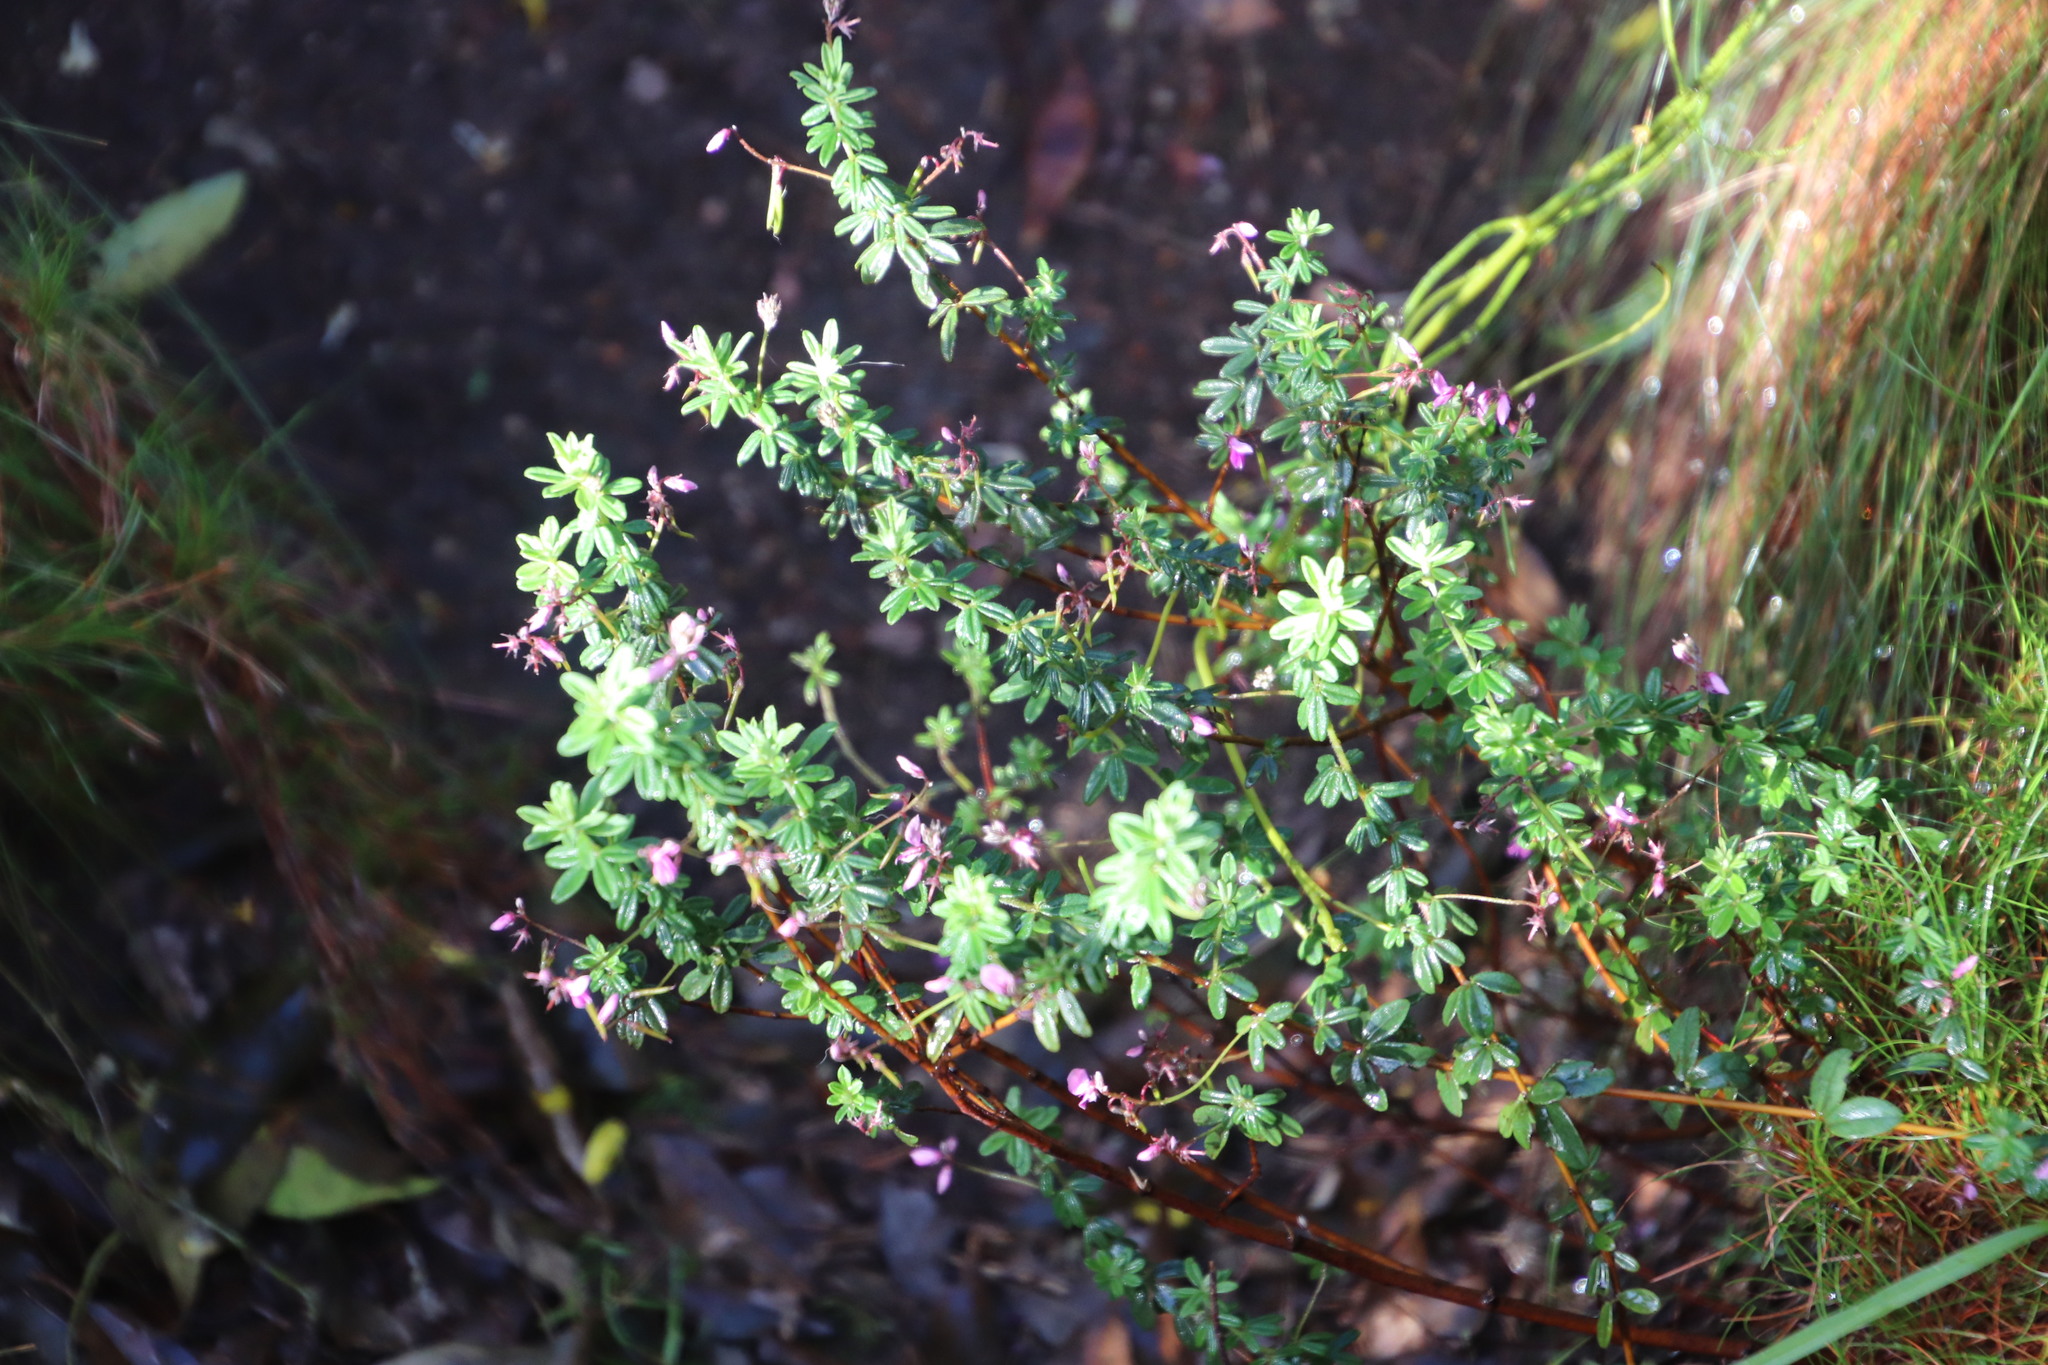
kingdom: Plantae
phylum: Tracheophyta
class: Magnoliopsida
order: Fabales
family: Fabaceae
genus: Indigofera
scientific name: Indigofera filiformis
